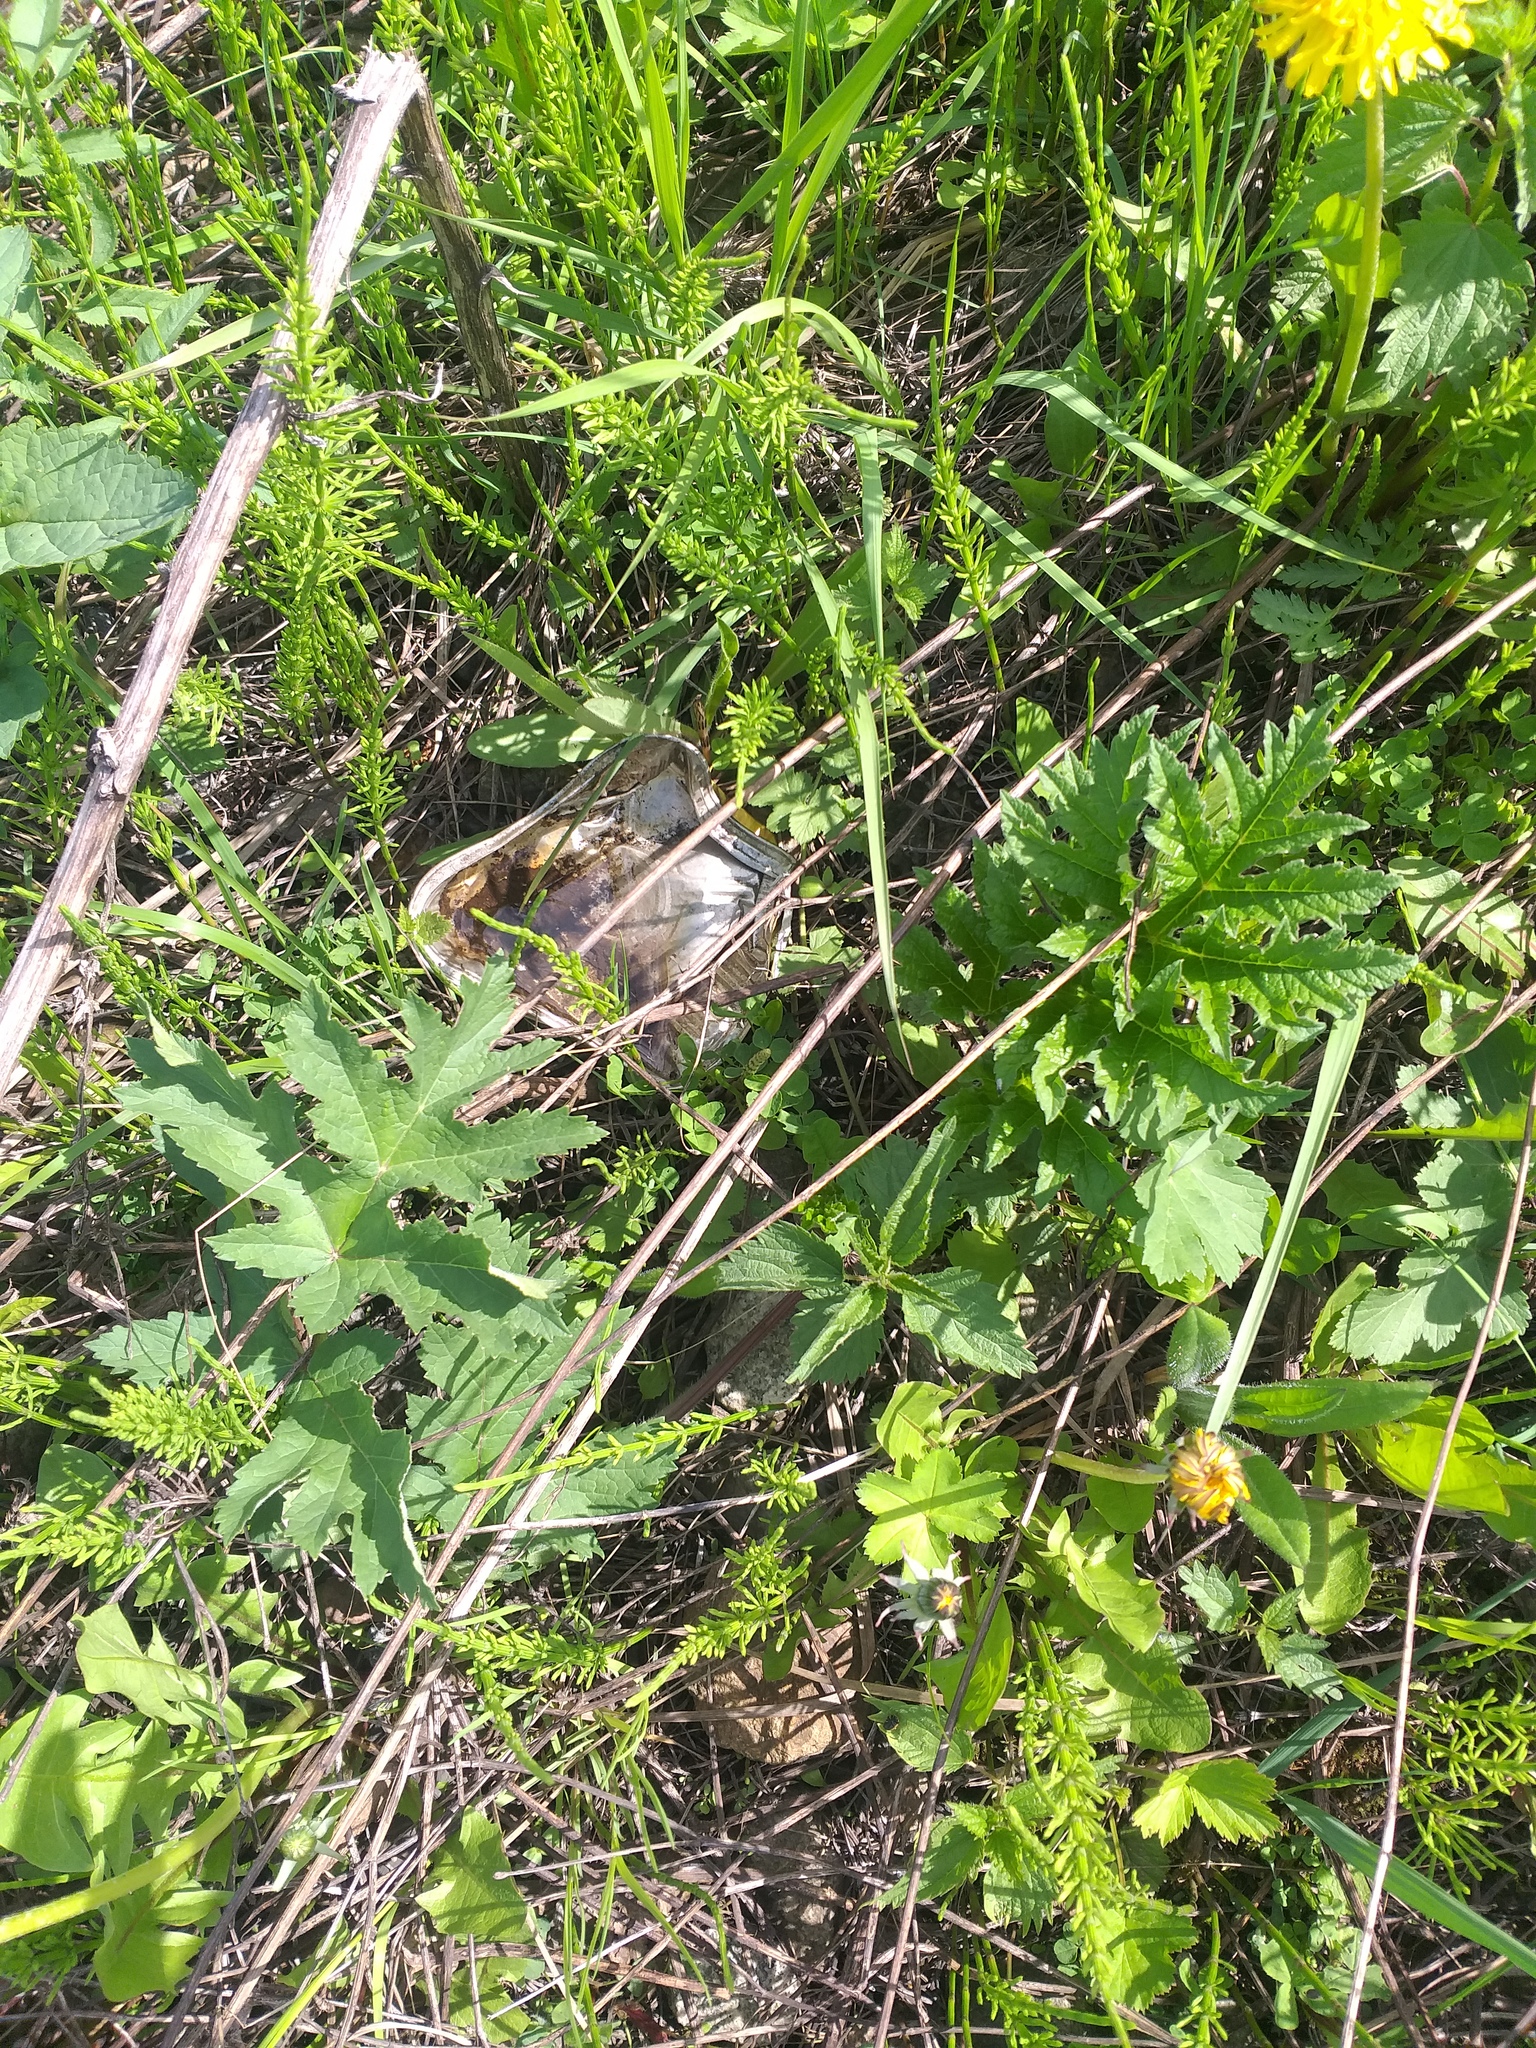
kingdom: Plantae
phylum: Tracheophyta
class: Magnoliopsida
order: Apiales
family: Apiaceae
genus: Heracleum
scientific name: Heracleum sphondylium
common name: Hogweed
